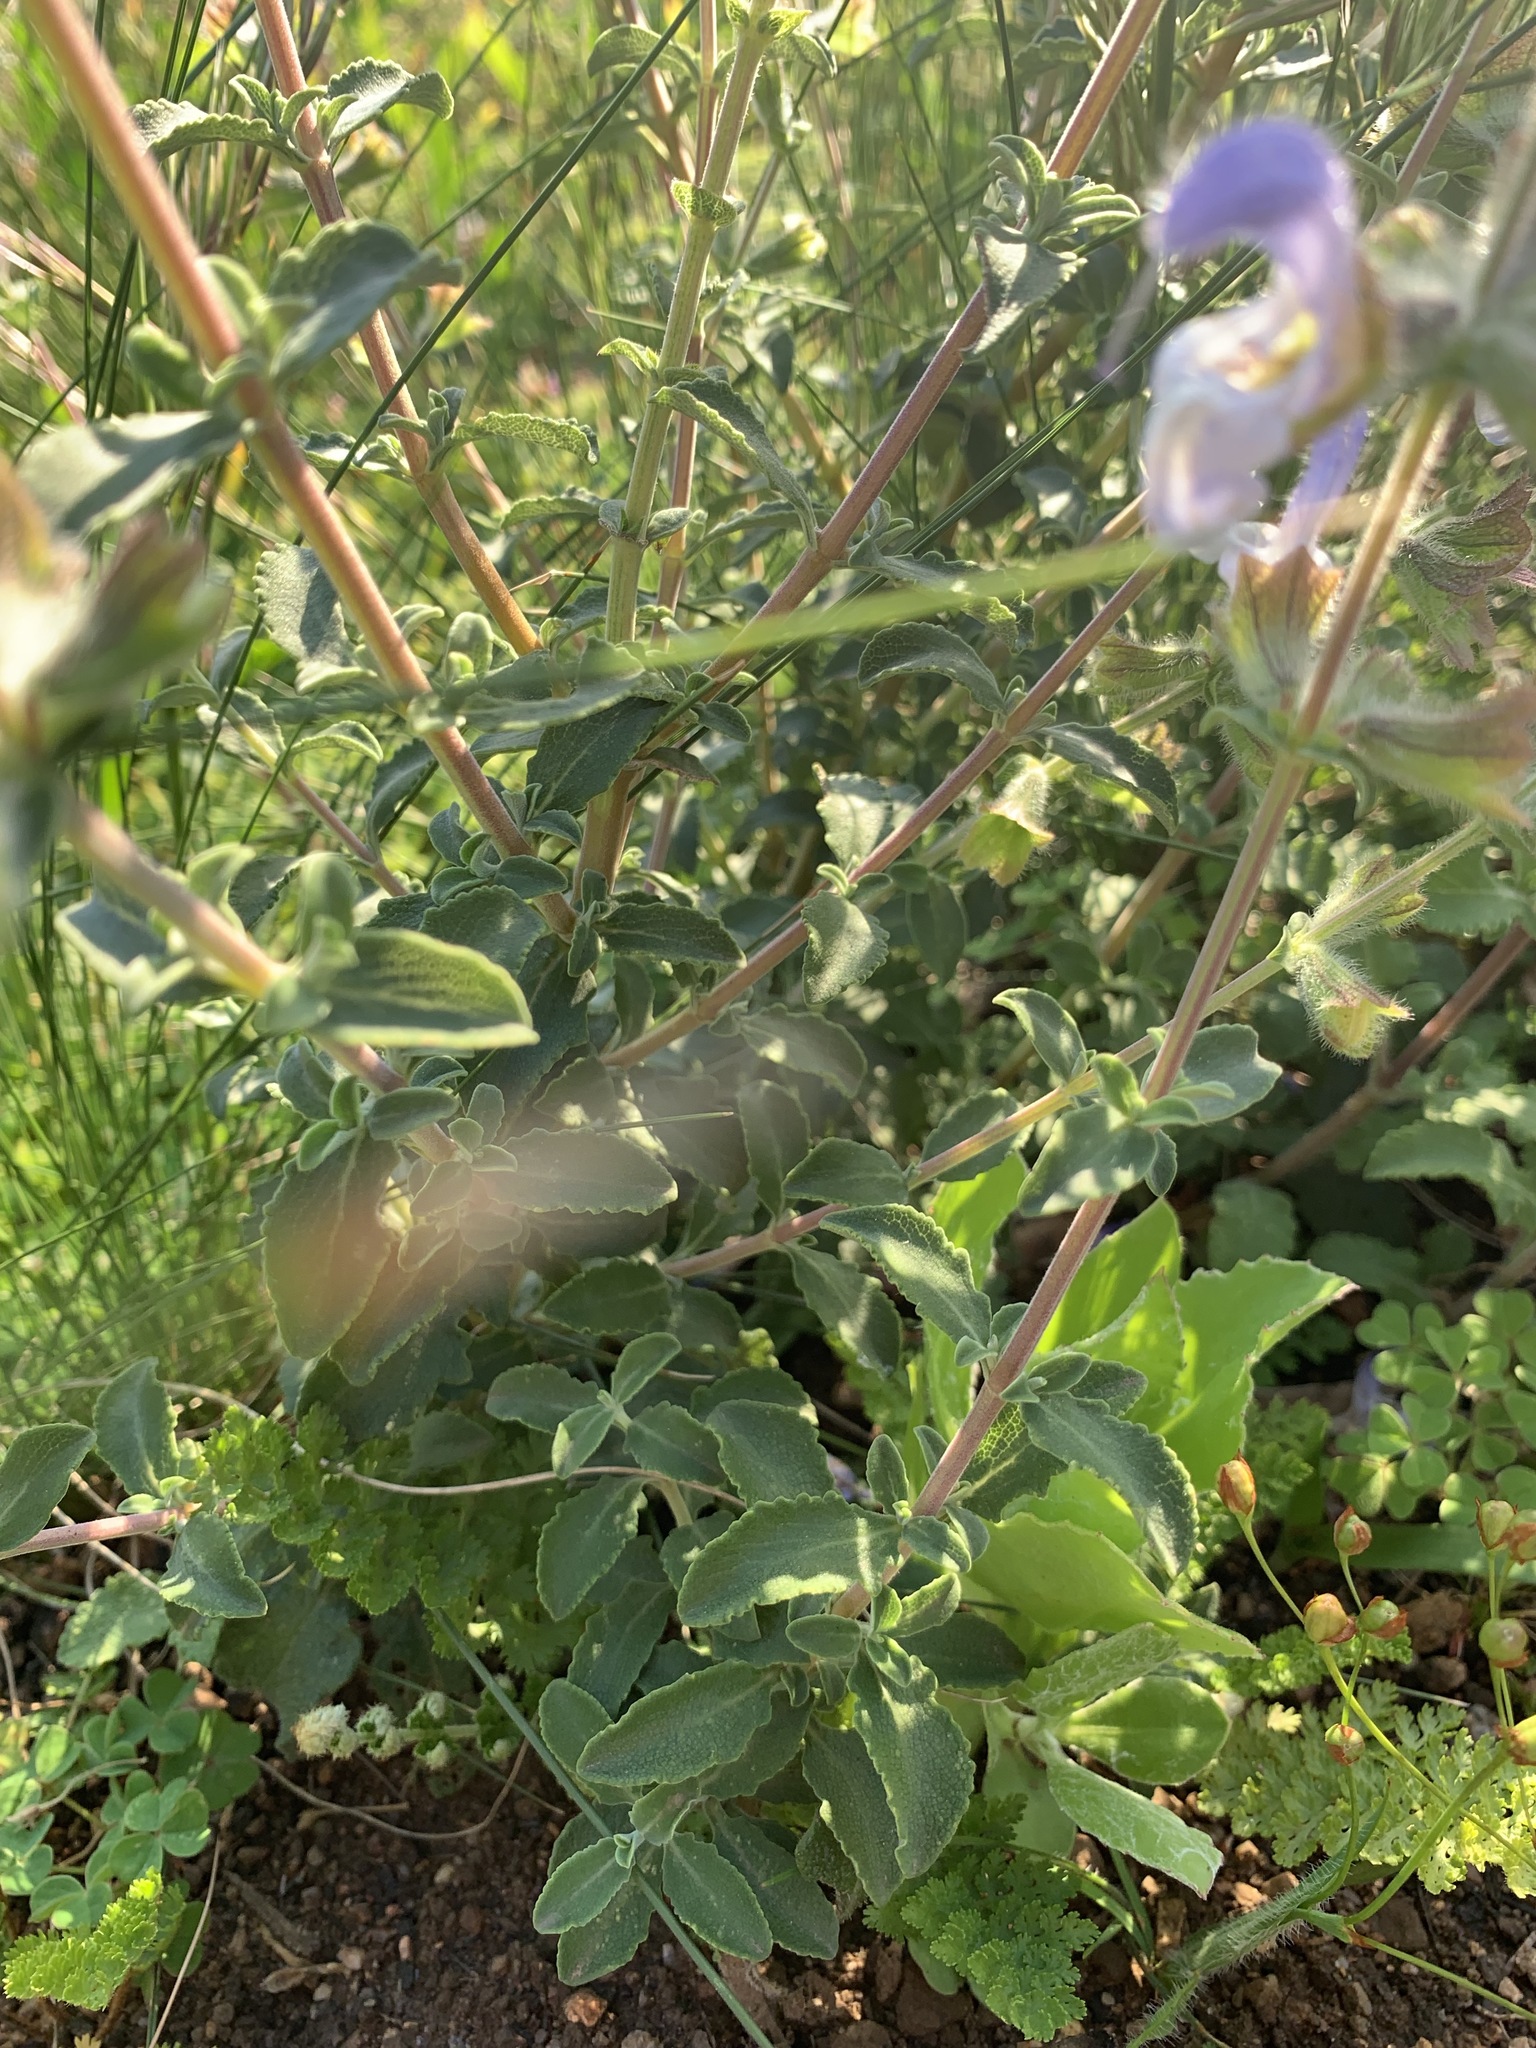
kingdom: Plantae
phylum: Tracheophyta
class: Magnoliopsida
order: Lamiales
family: Lamiaceae
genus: Salvia
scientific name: Salvia africana
